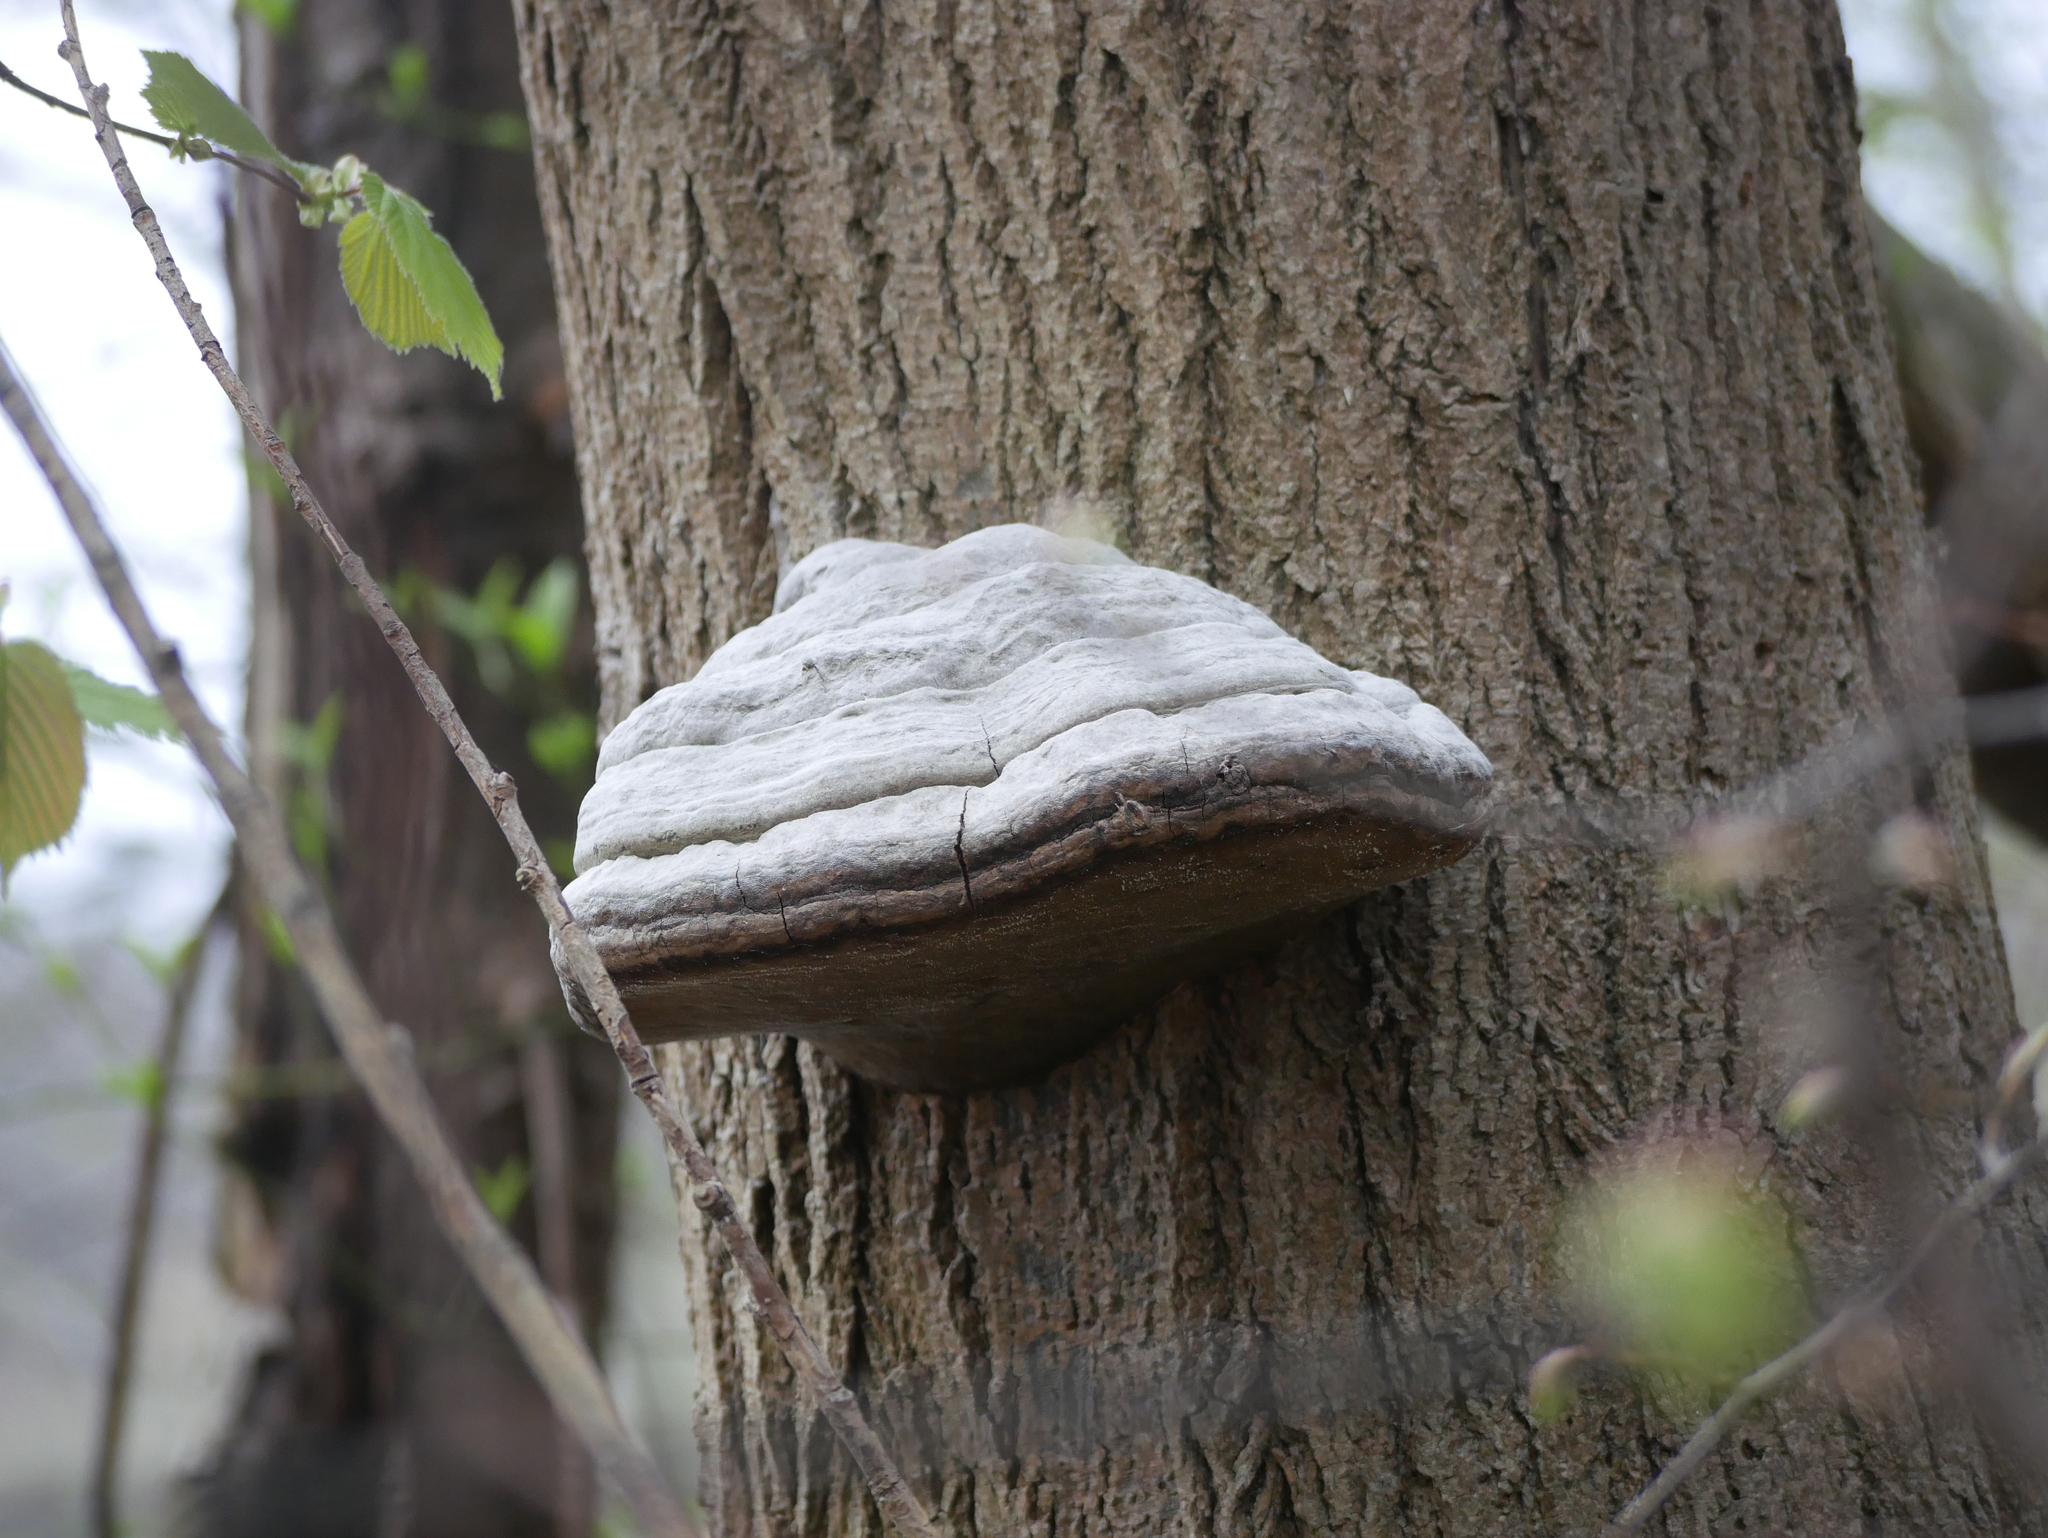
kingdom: Fungi
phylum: Basidiomycota
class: Agaricomycetes
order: Polyporales
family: Polyporaceae
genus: Fomes
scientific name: Fomes fomentarius
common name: Hoof fungus
